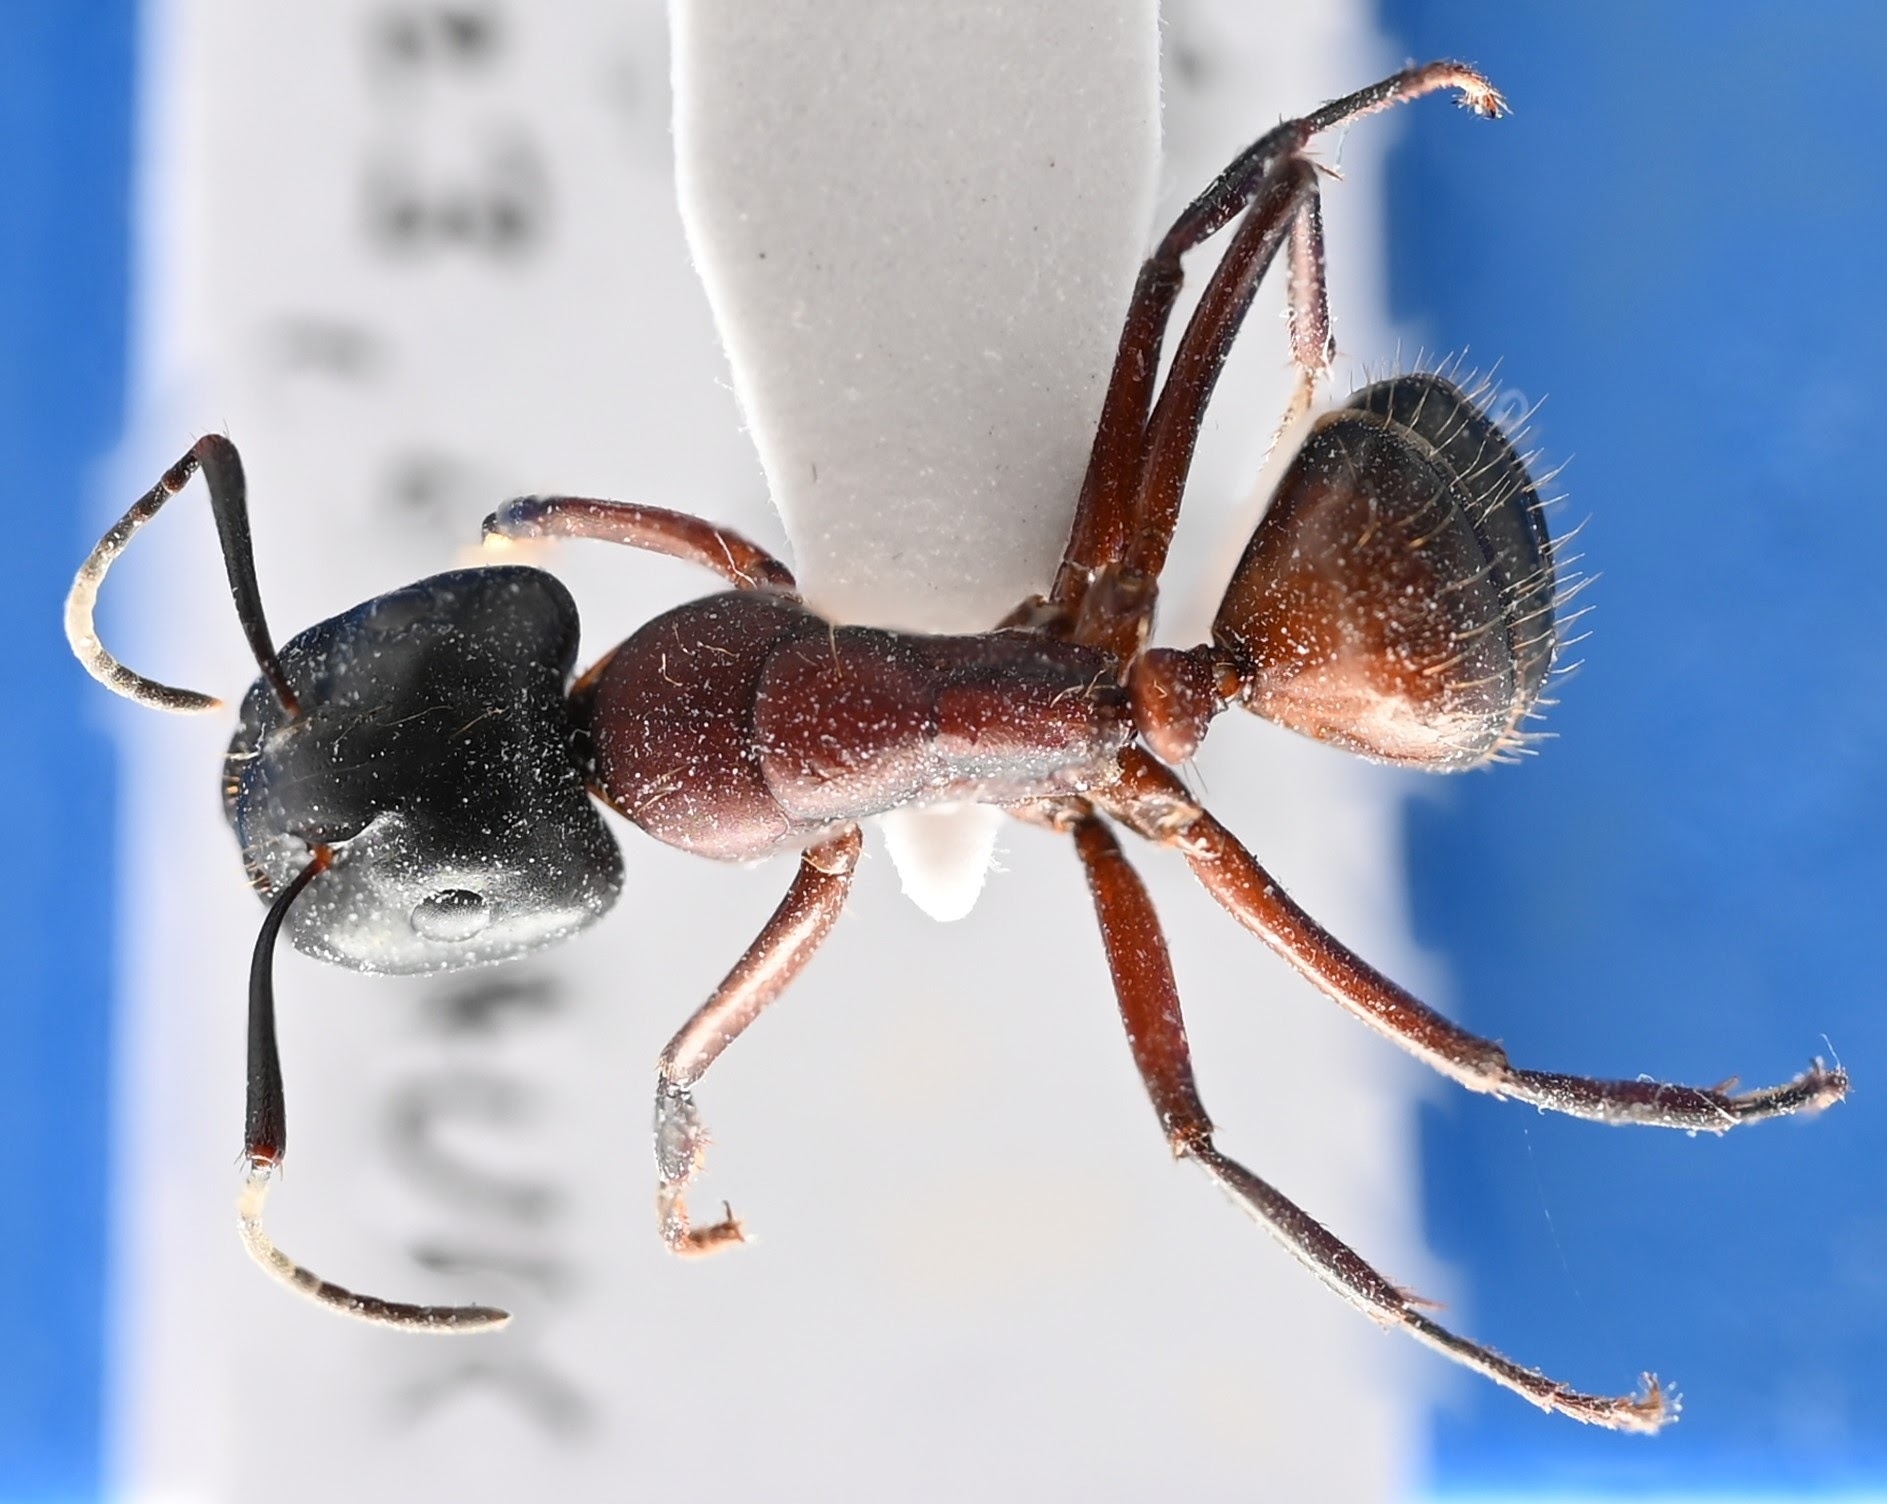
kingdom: Animalia
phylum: Arthropoda
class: Insecta
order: Hymenoptera
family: Formicidae
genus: Camponotus
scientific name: Camponotus ligniperdus
